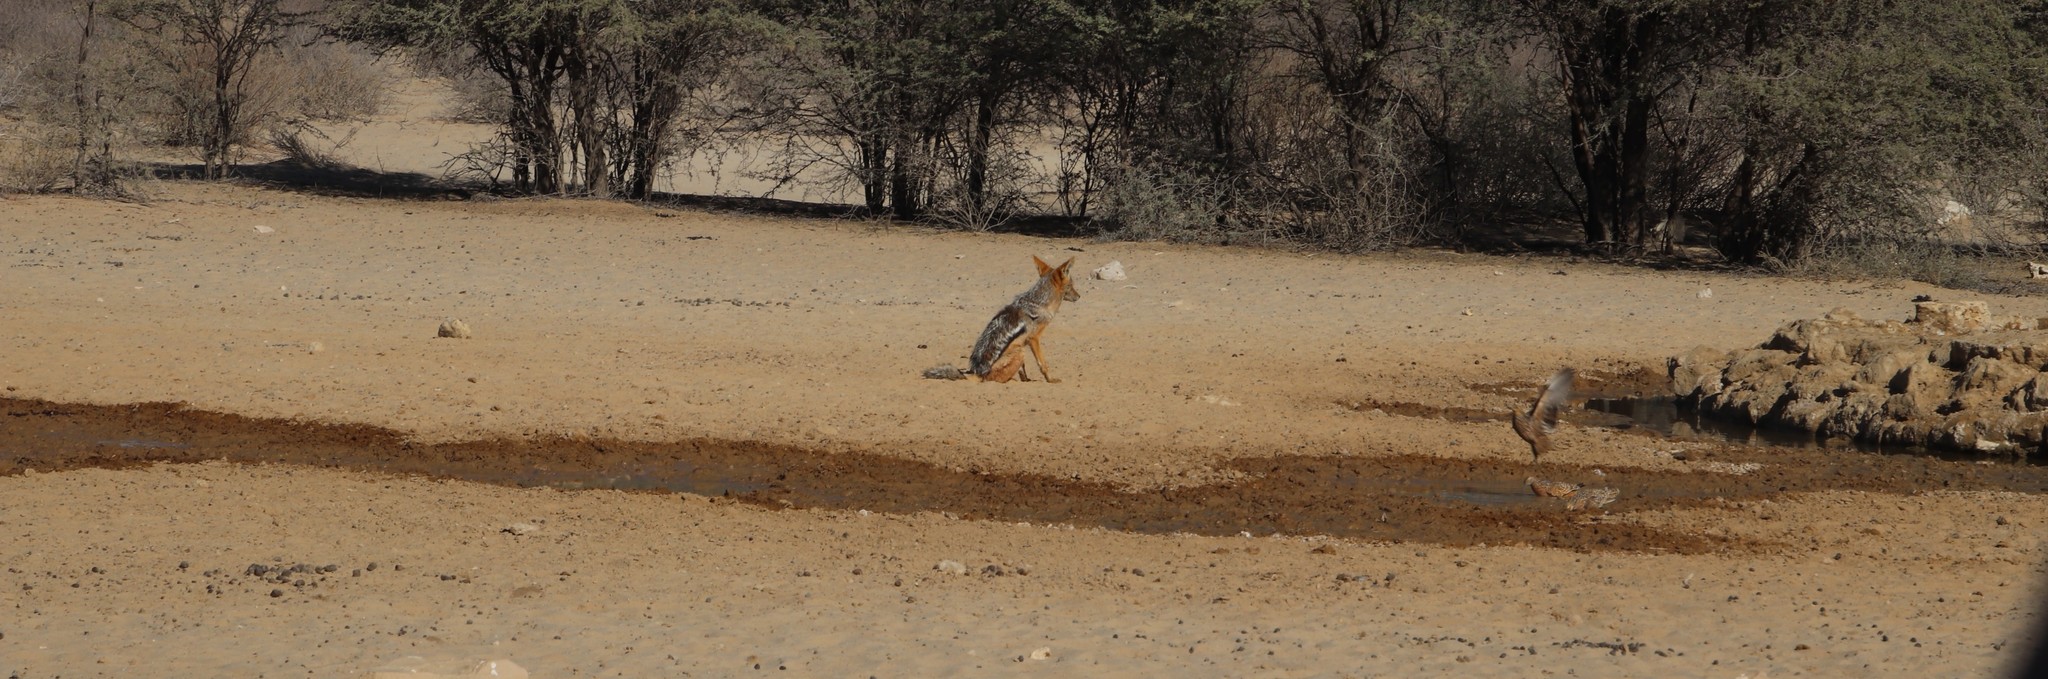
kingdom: Animalia
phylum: Chordata
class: Mammalia
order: Carnivora
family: Canidae
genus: Lupulella
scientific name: Lupulella
